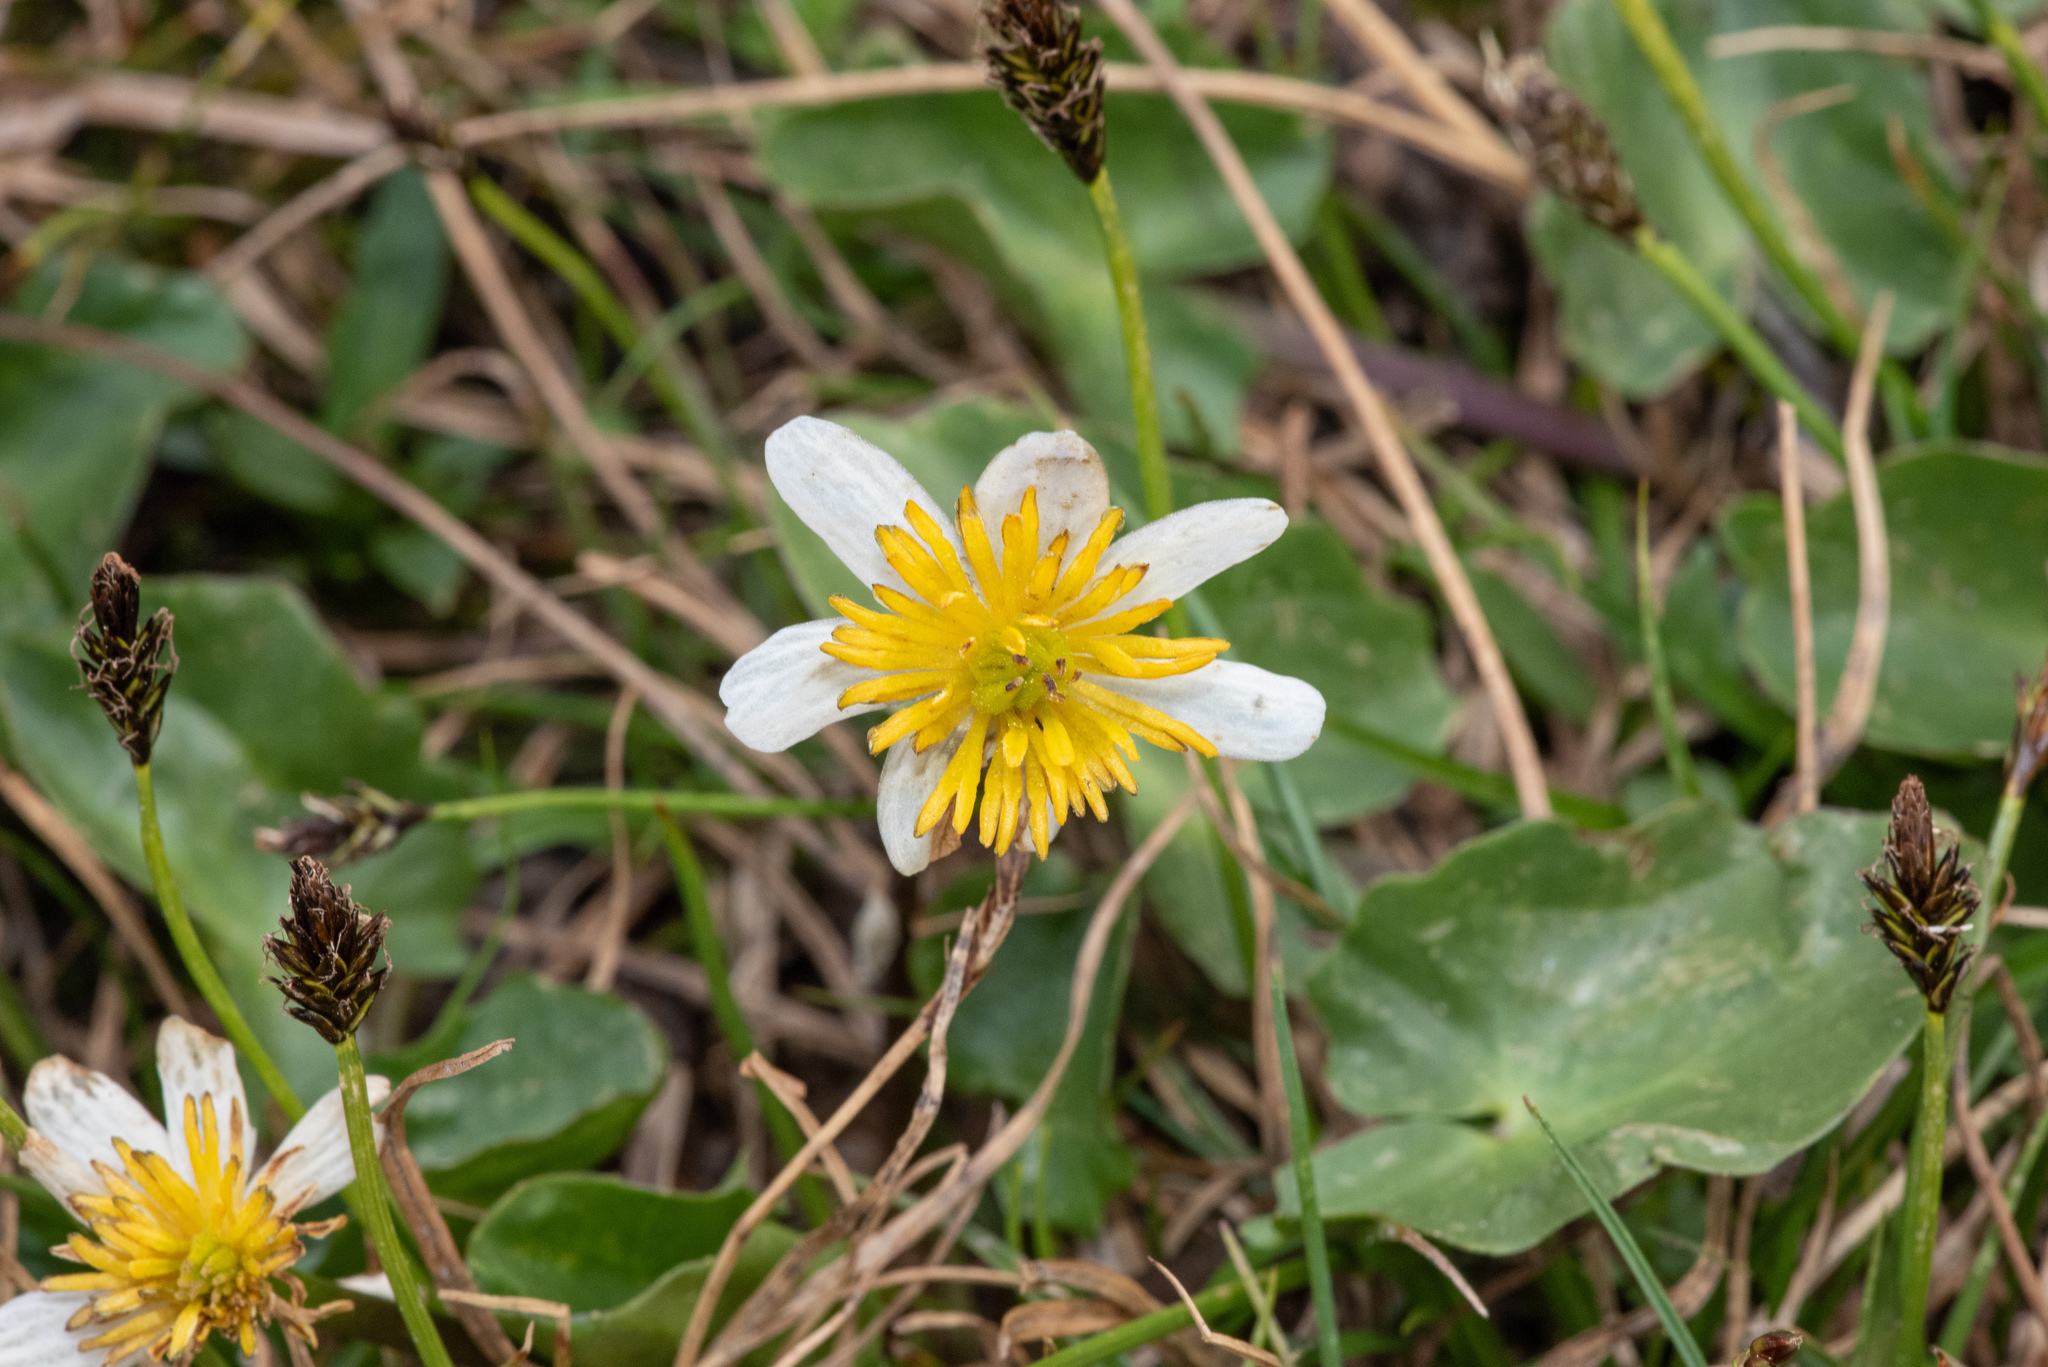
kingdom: Plantae
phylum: Tracheophyta
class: Magnoliopsida
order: Ranunculales
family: Ranunculaceae
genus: Caltha
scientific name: Caltha leptosepala
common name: Elkslip
